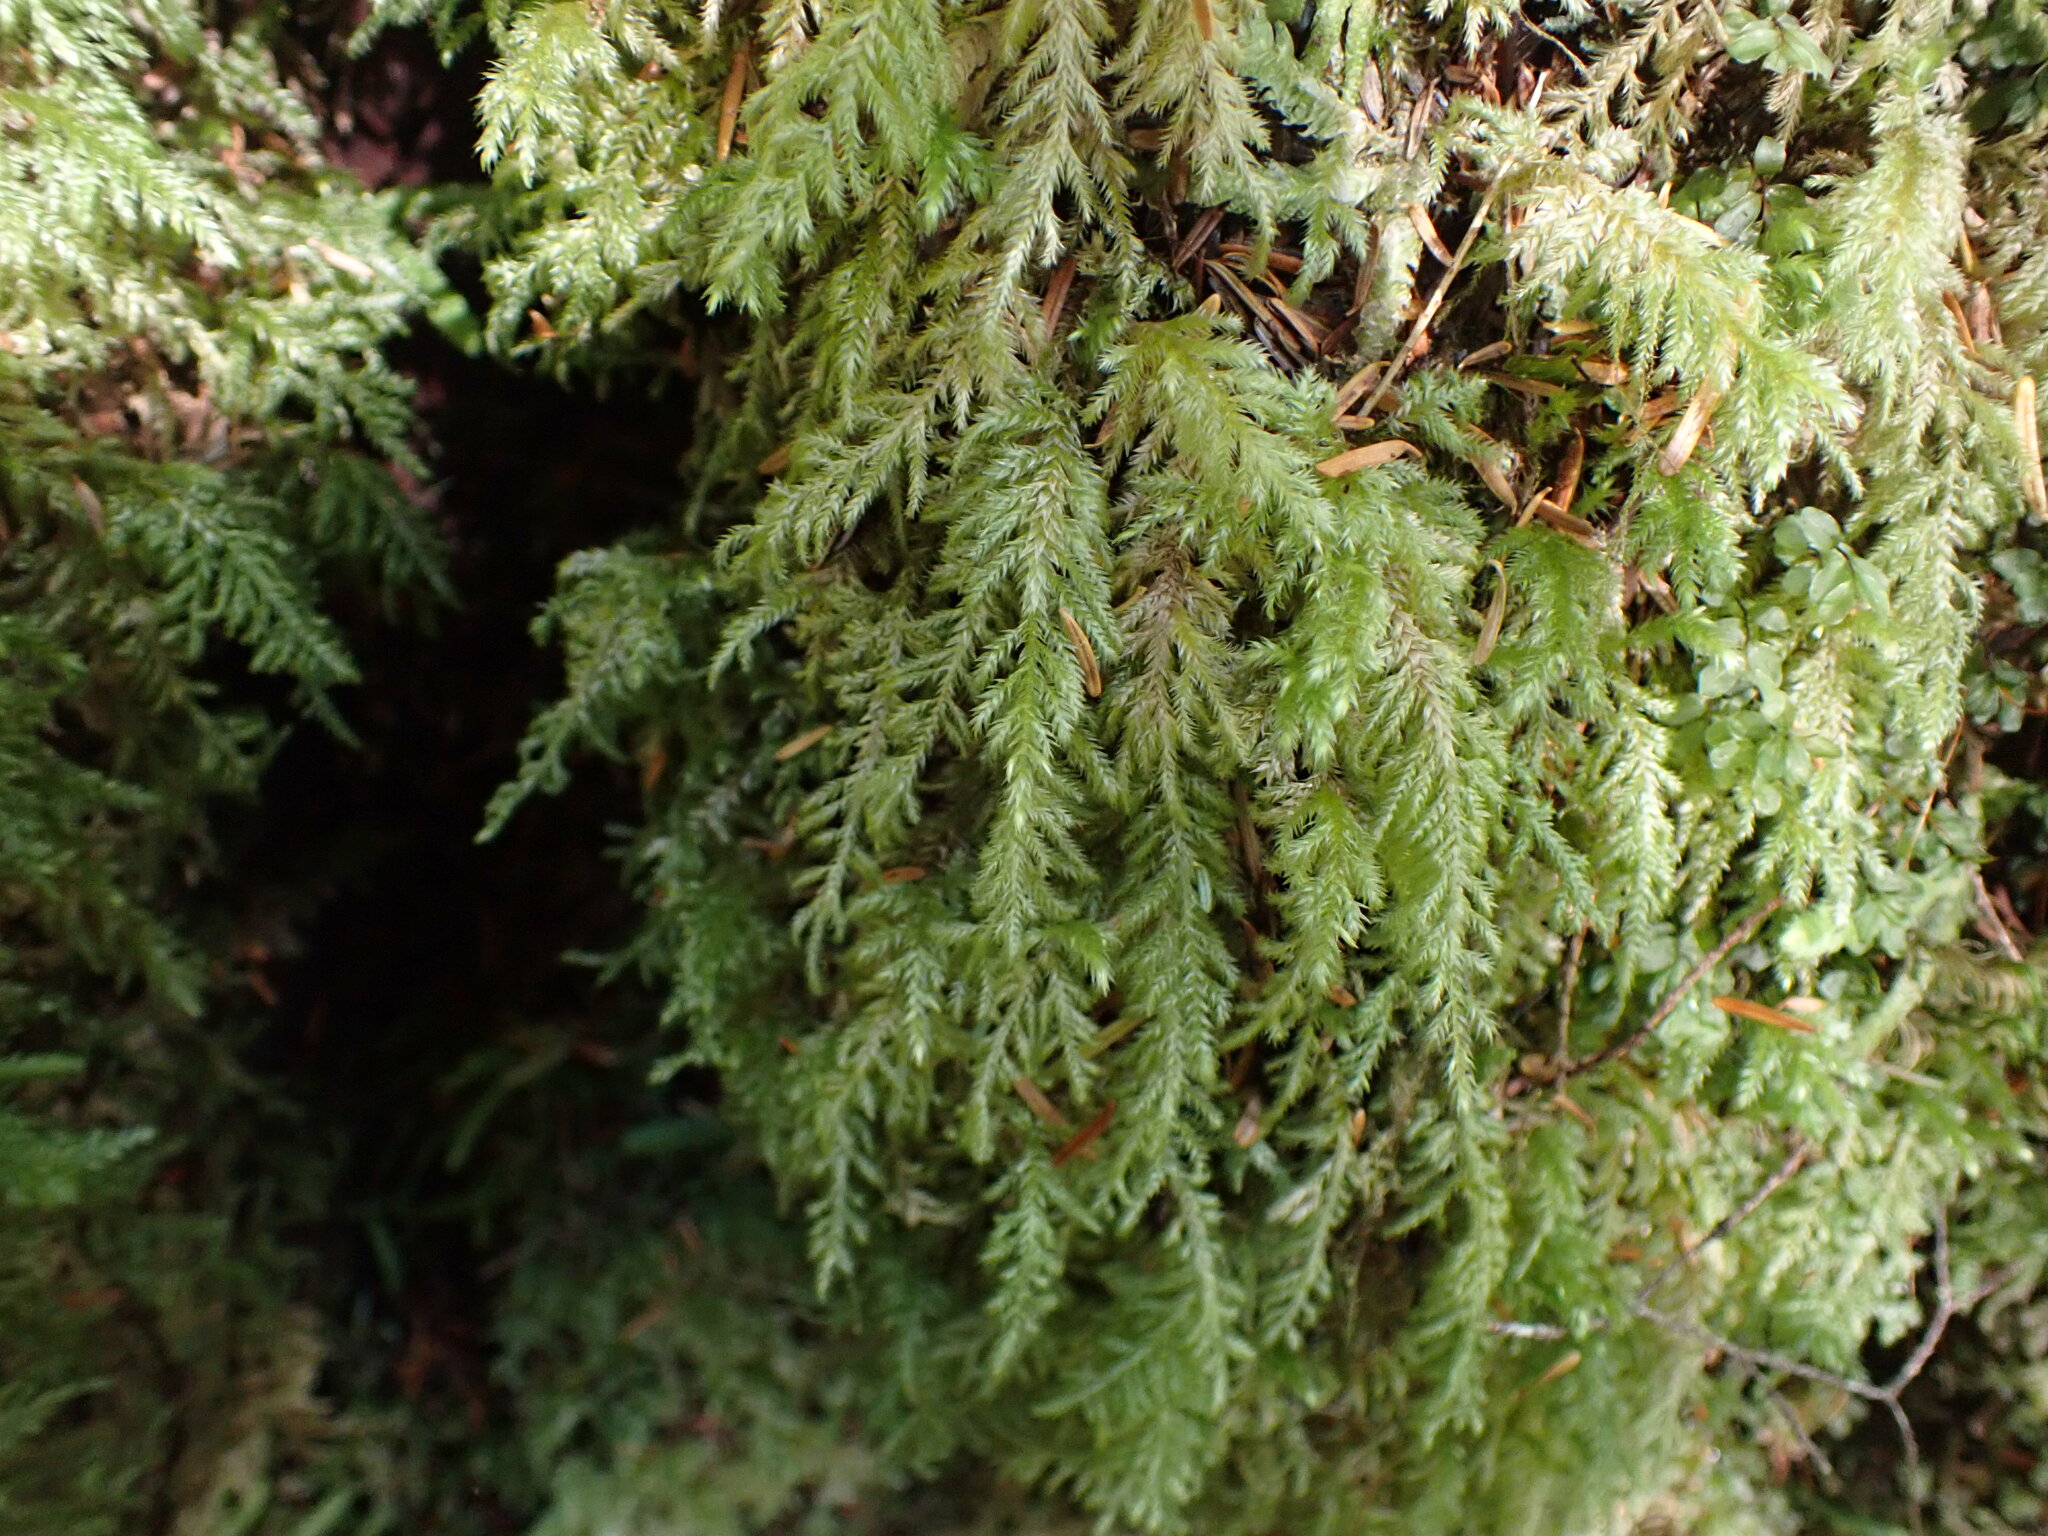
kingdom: Plantae
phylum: Bryophyta
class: Bryopsida
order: Hypnales
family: Lembophyllaceae
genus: Pseudisothecium
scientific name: Pseudisothecium stoloniferum
